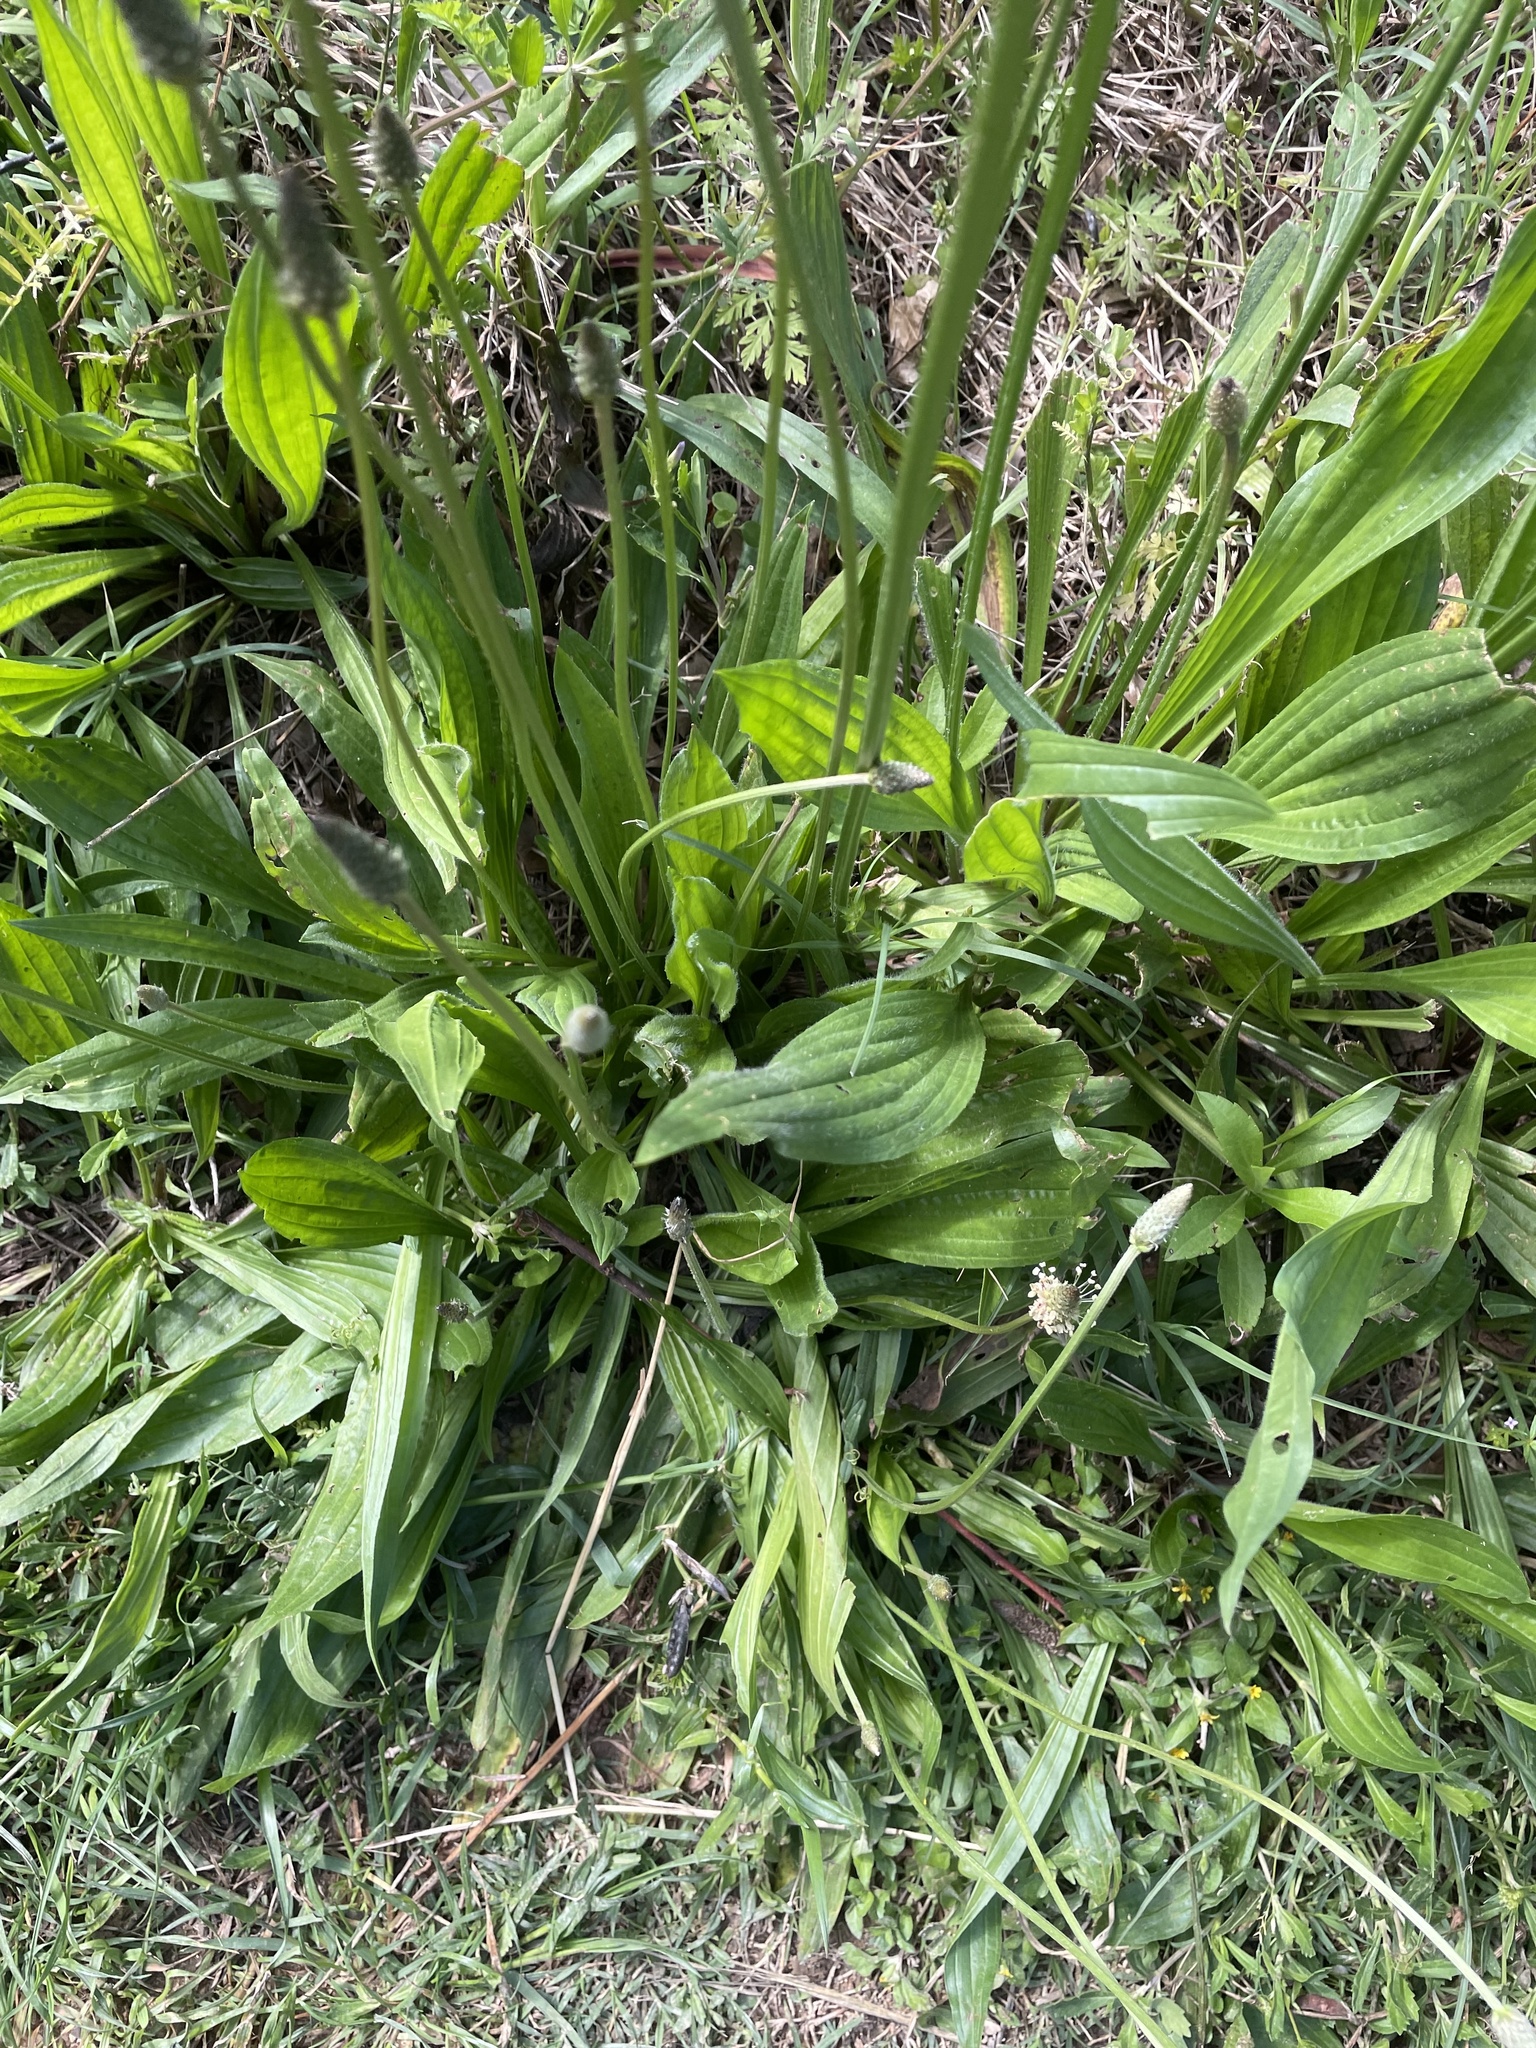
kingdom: Plantae
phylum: Tracheophyta
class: Magnoliopsida
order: Lamiales
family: Plantaginaceae
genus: Plantago
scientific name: Plantago lanceolata
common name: Ribwort plantain
